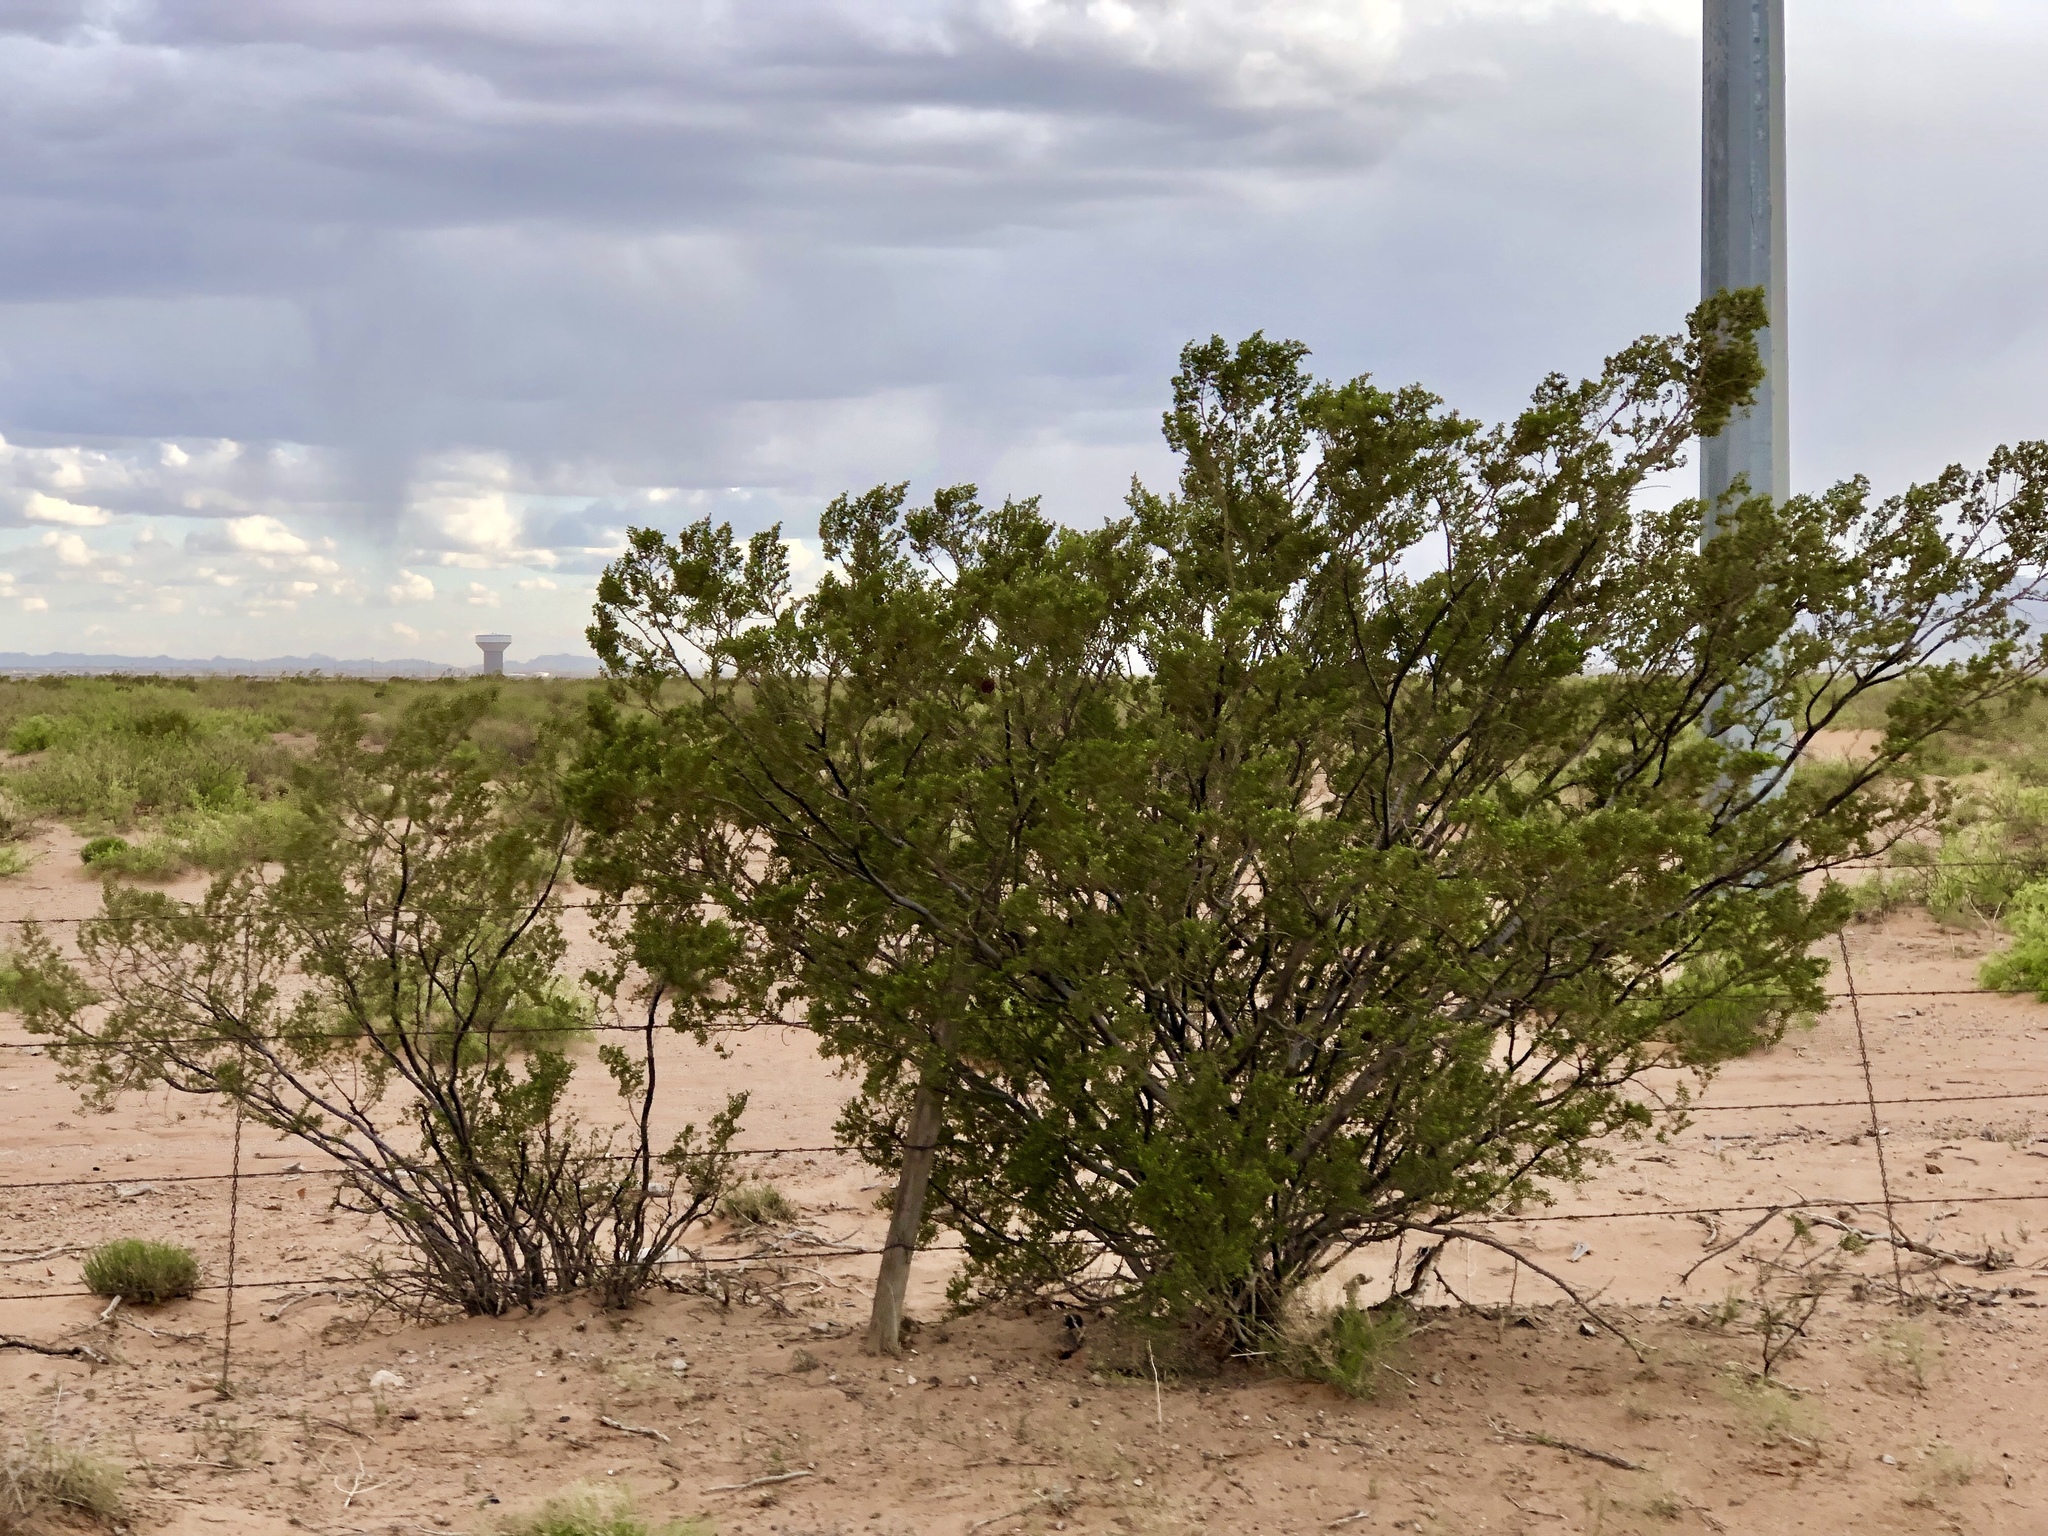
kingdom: Plantae
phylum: Tracheophyta
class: Magnoliopsida
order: Zygophyllales
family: Zygophyllaceae
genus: Larrea
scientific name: Larrea tridentata
